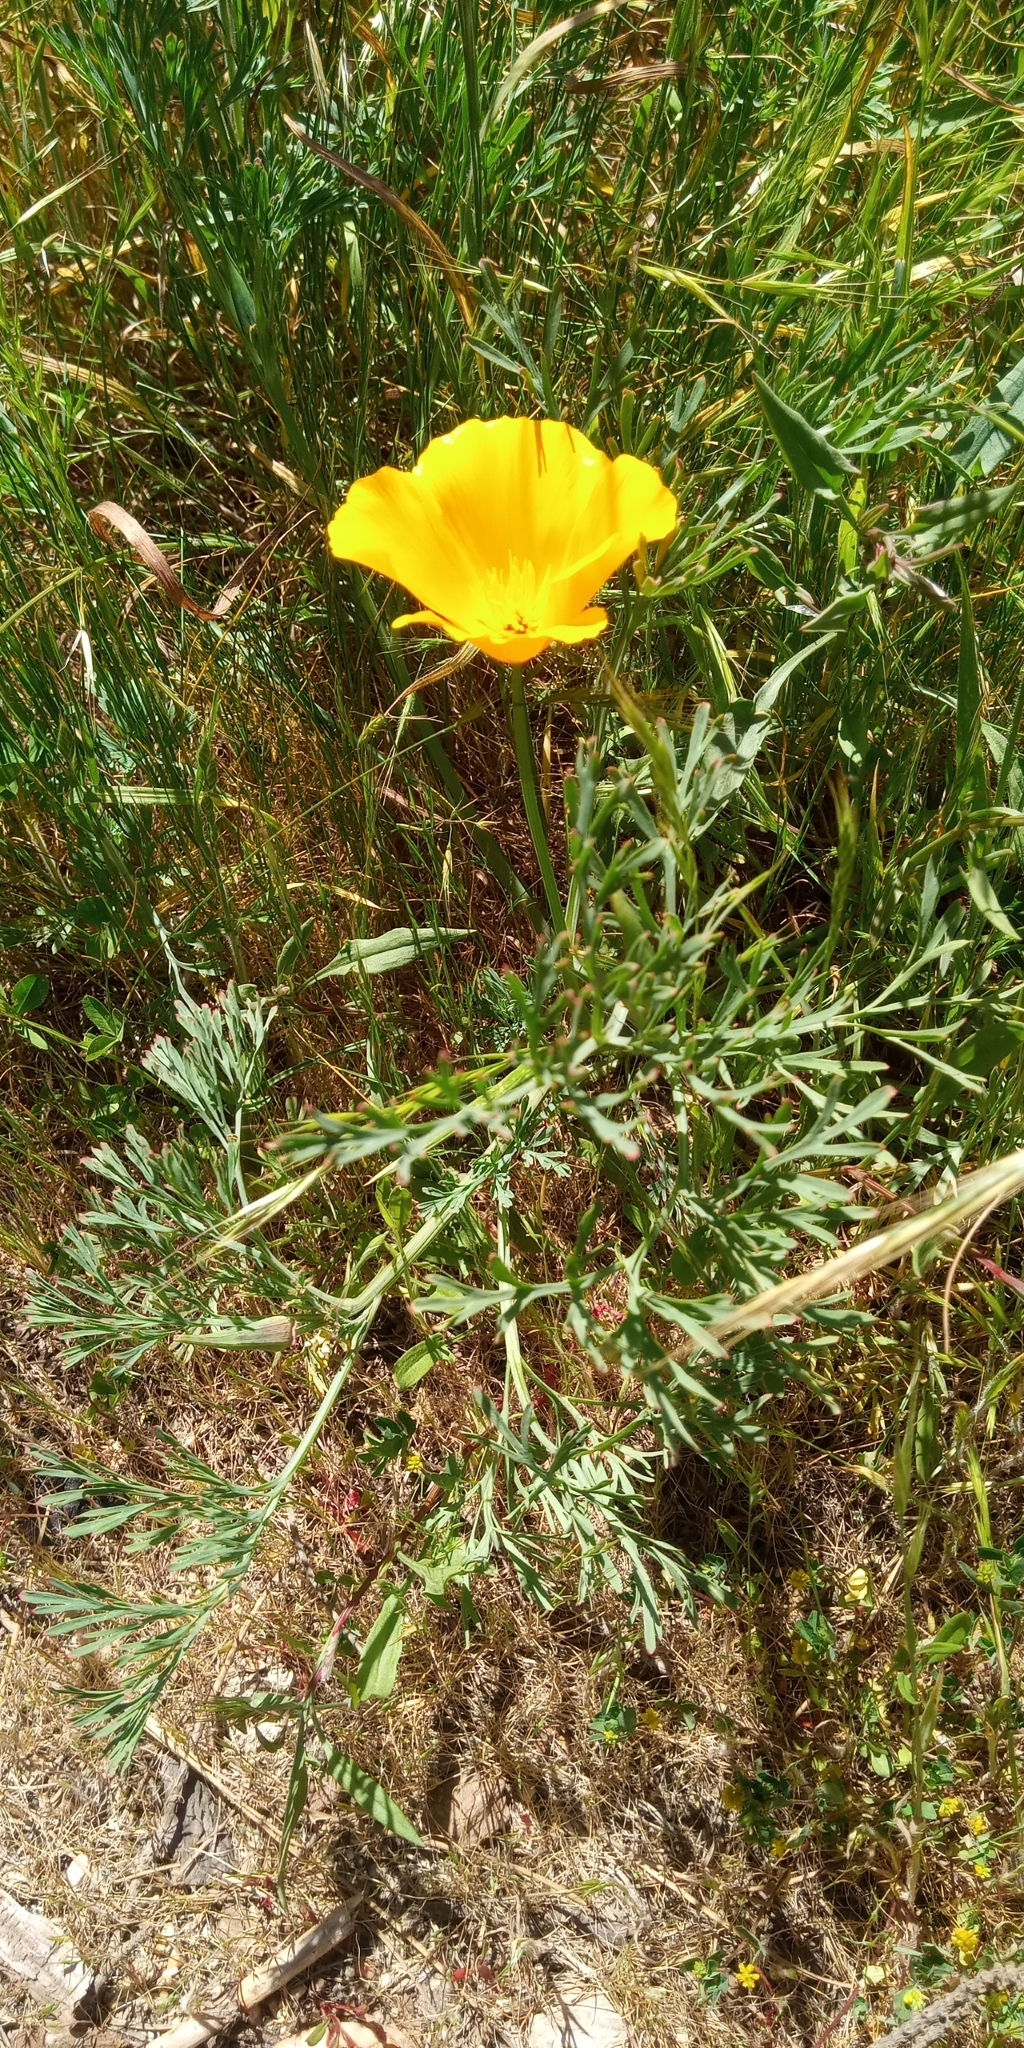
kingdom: Plantae
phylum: Tracheophyta
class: Magnoliopsida
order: Ranunculales
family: Papaveraceae
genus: Eschscholzia
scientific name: Eschscholzia californica
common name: California poppy
